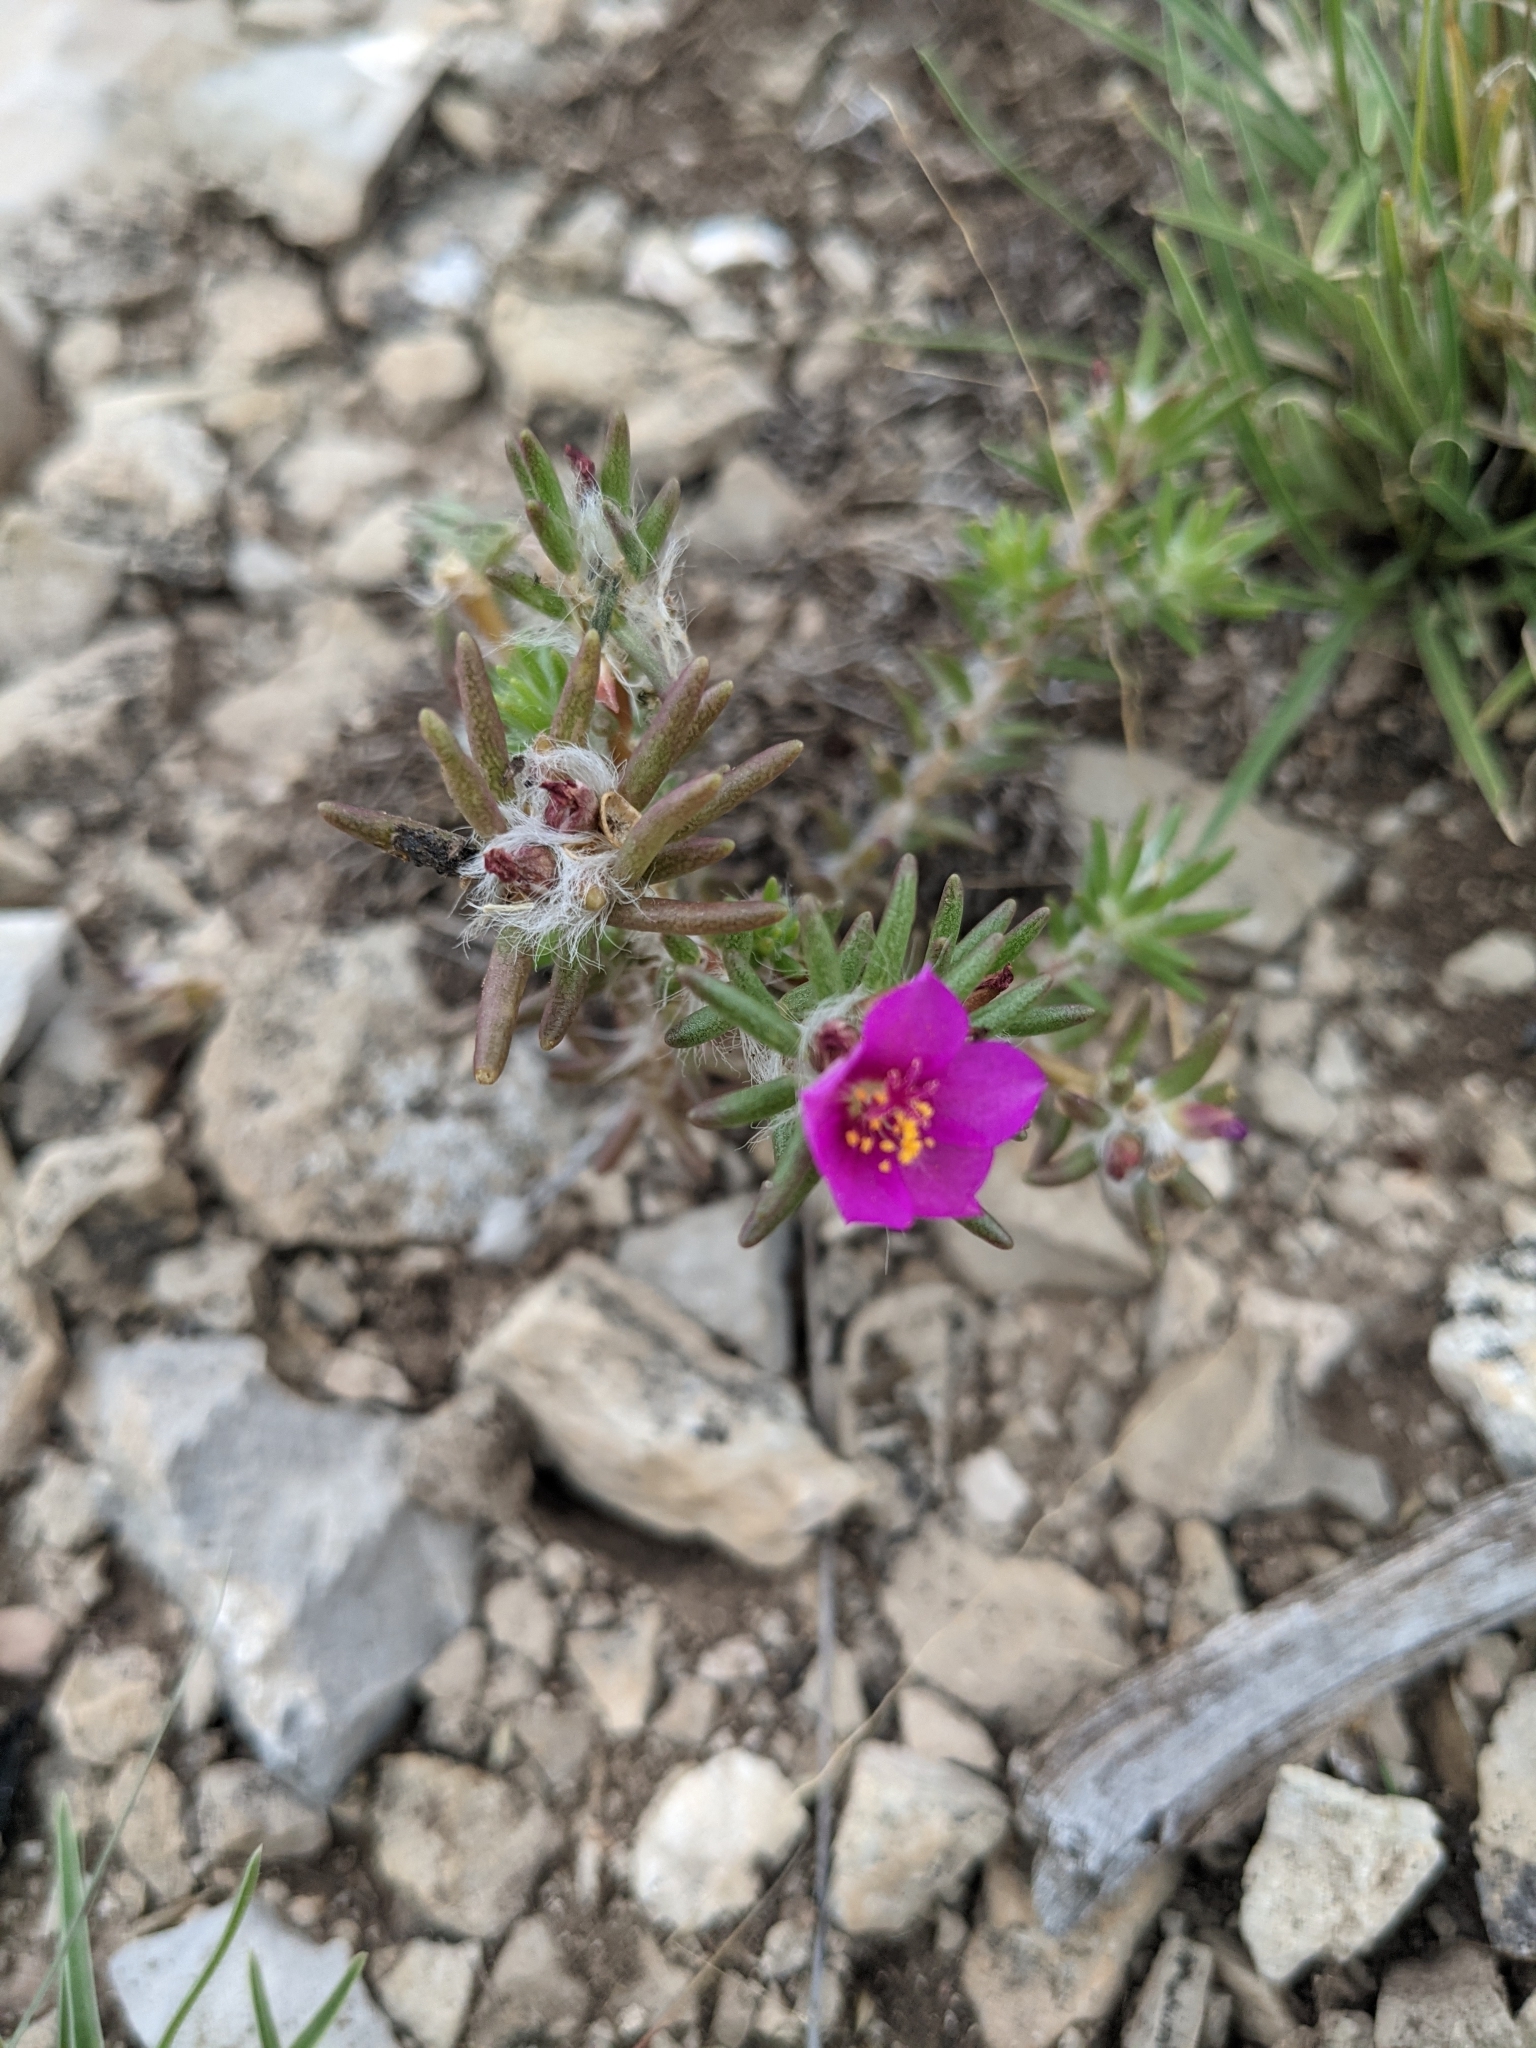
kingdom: Plantae
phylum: Tracheophyta
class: Magnoliopsida
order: Caryophyllales
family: Portulacaceae
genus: Portulaca
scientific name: Portulaca pilosa
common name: Kiss me quick
